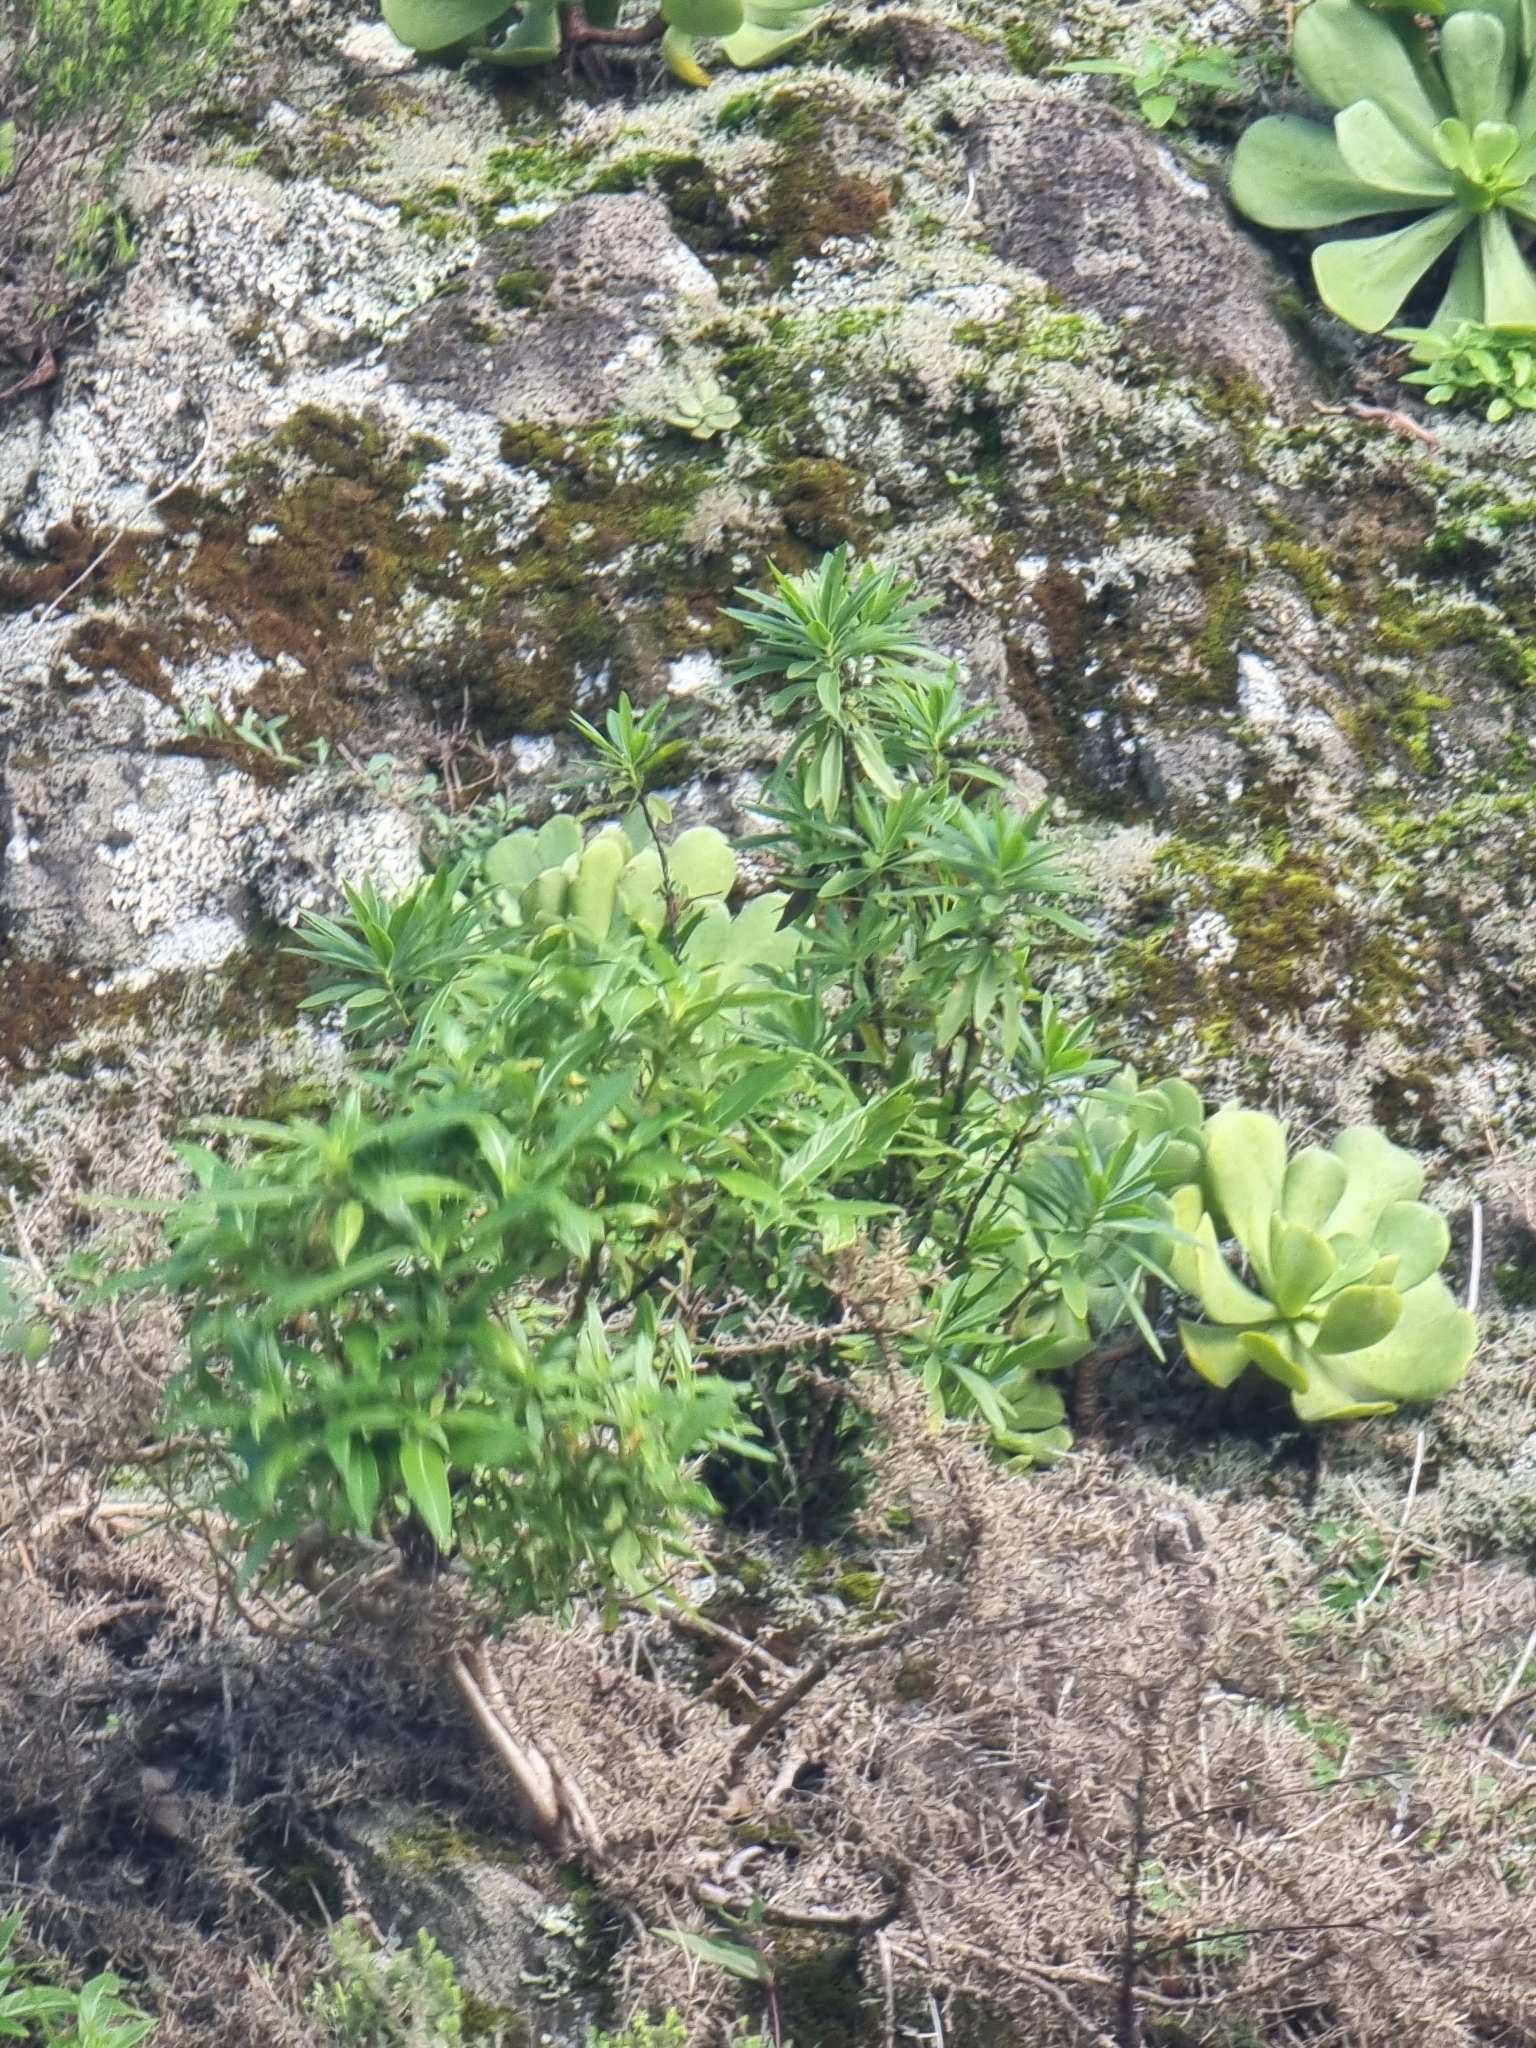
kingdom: Plantae
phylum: Tracheophyta
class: Magnoliopsida
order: Lamiales
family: Plantaginaceae
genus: Globularia
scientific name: Globularia salicina
